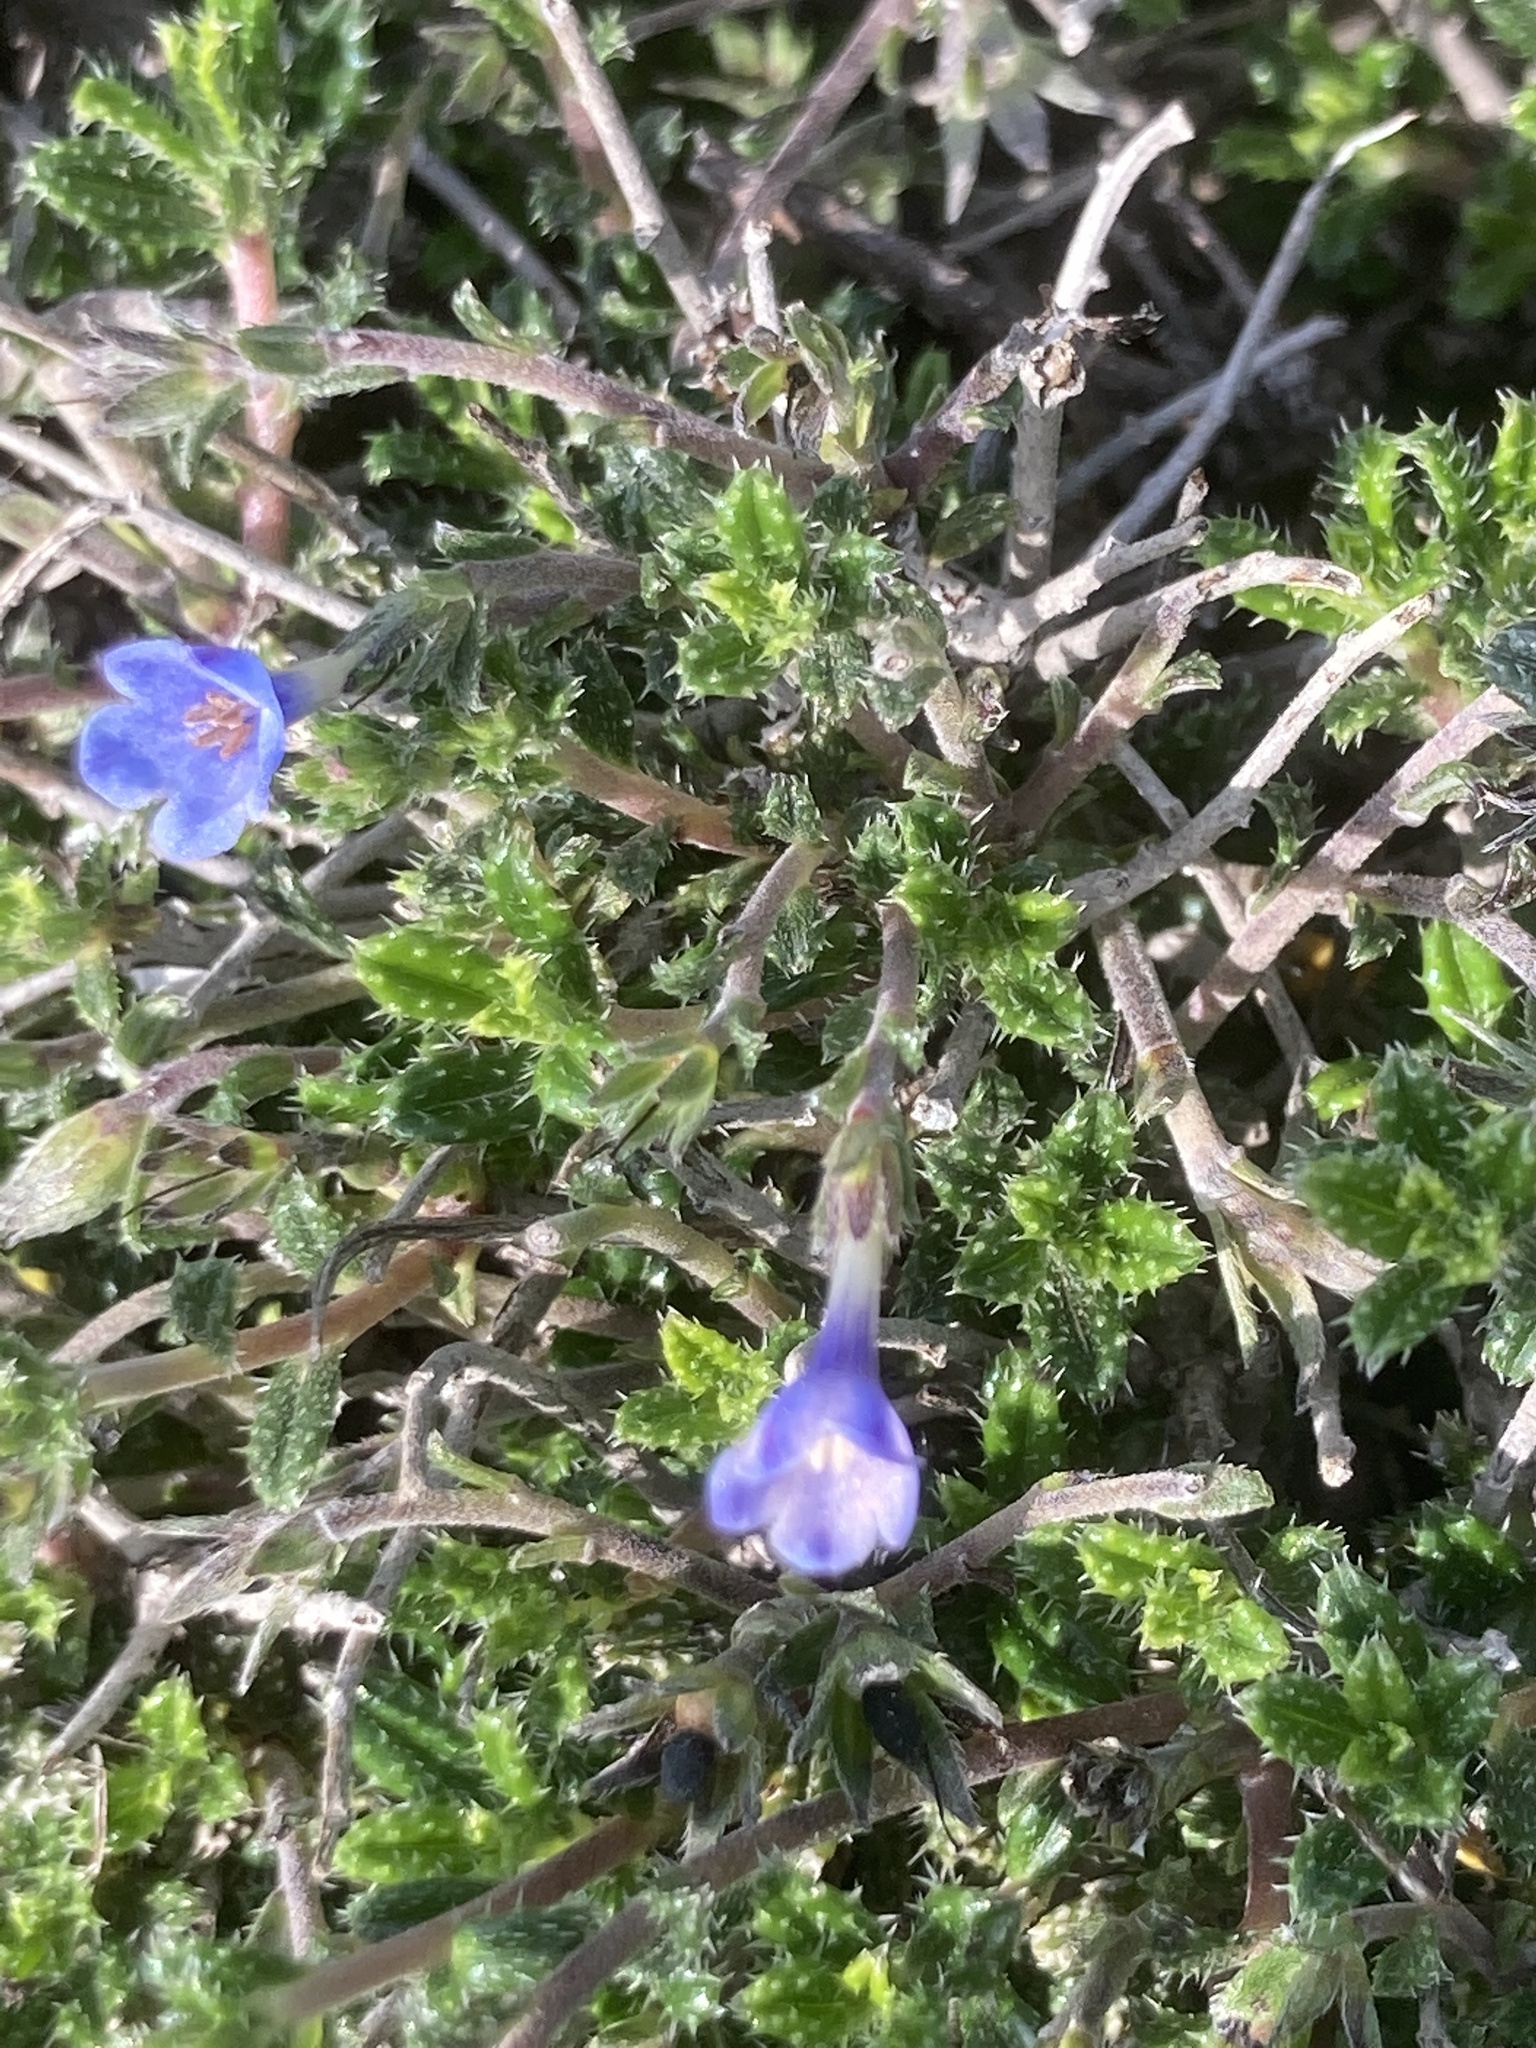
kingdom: Plantae
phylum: Tracheophyta
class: Magnoliopsida
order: Boraginales
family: Boraginaceae
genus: Lithodora
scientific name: Lithodora hispidula
